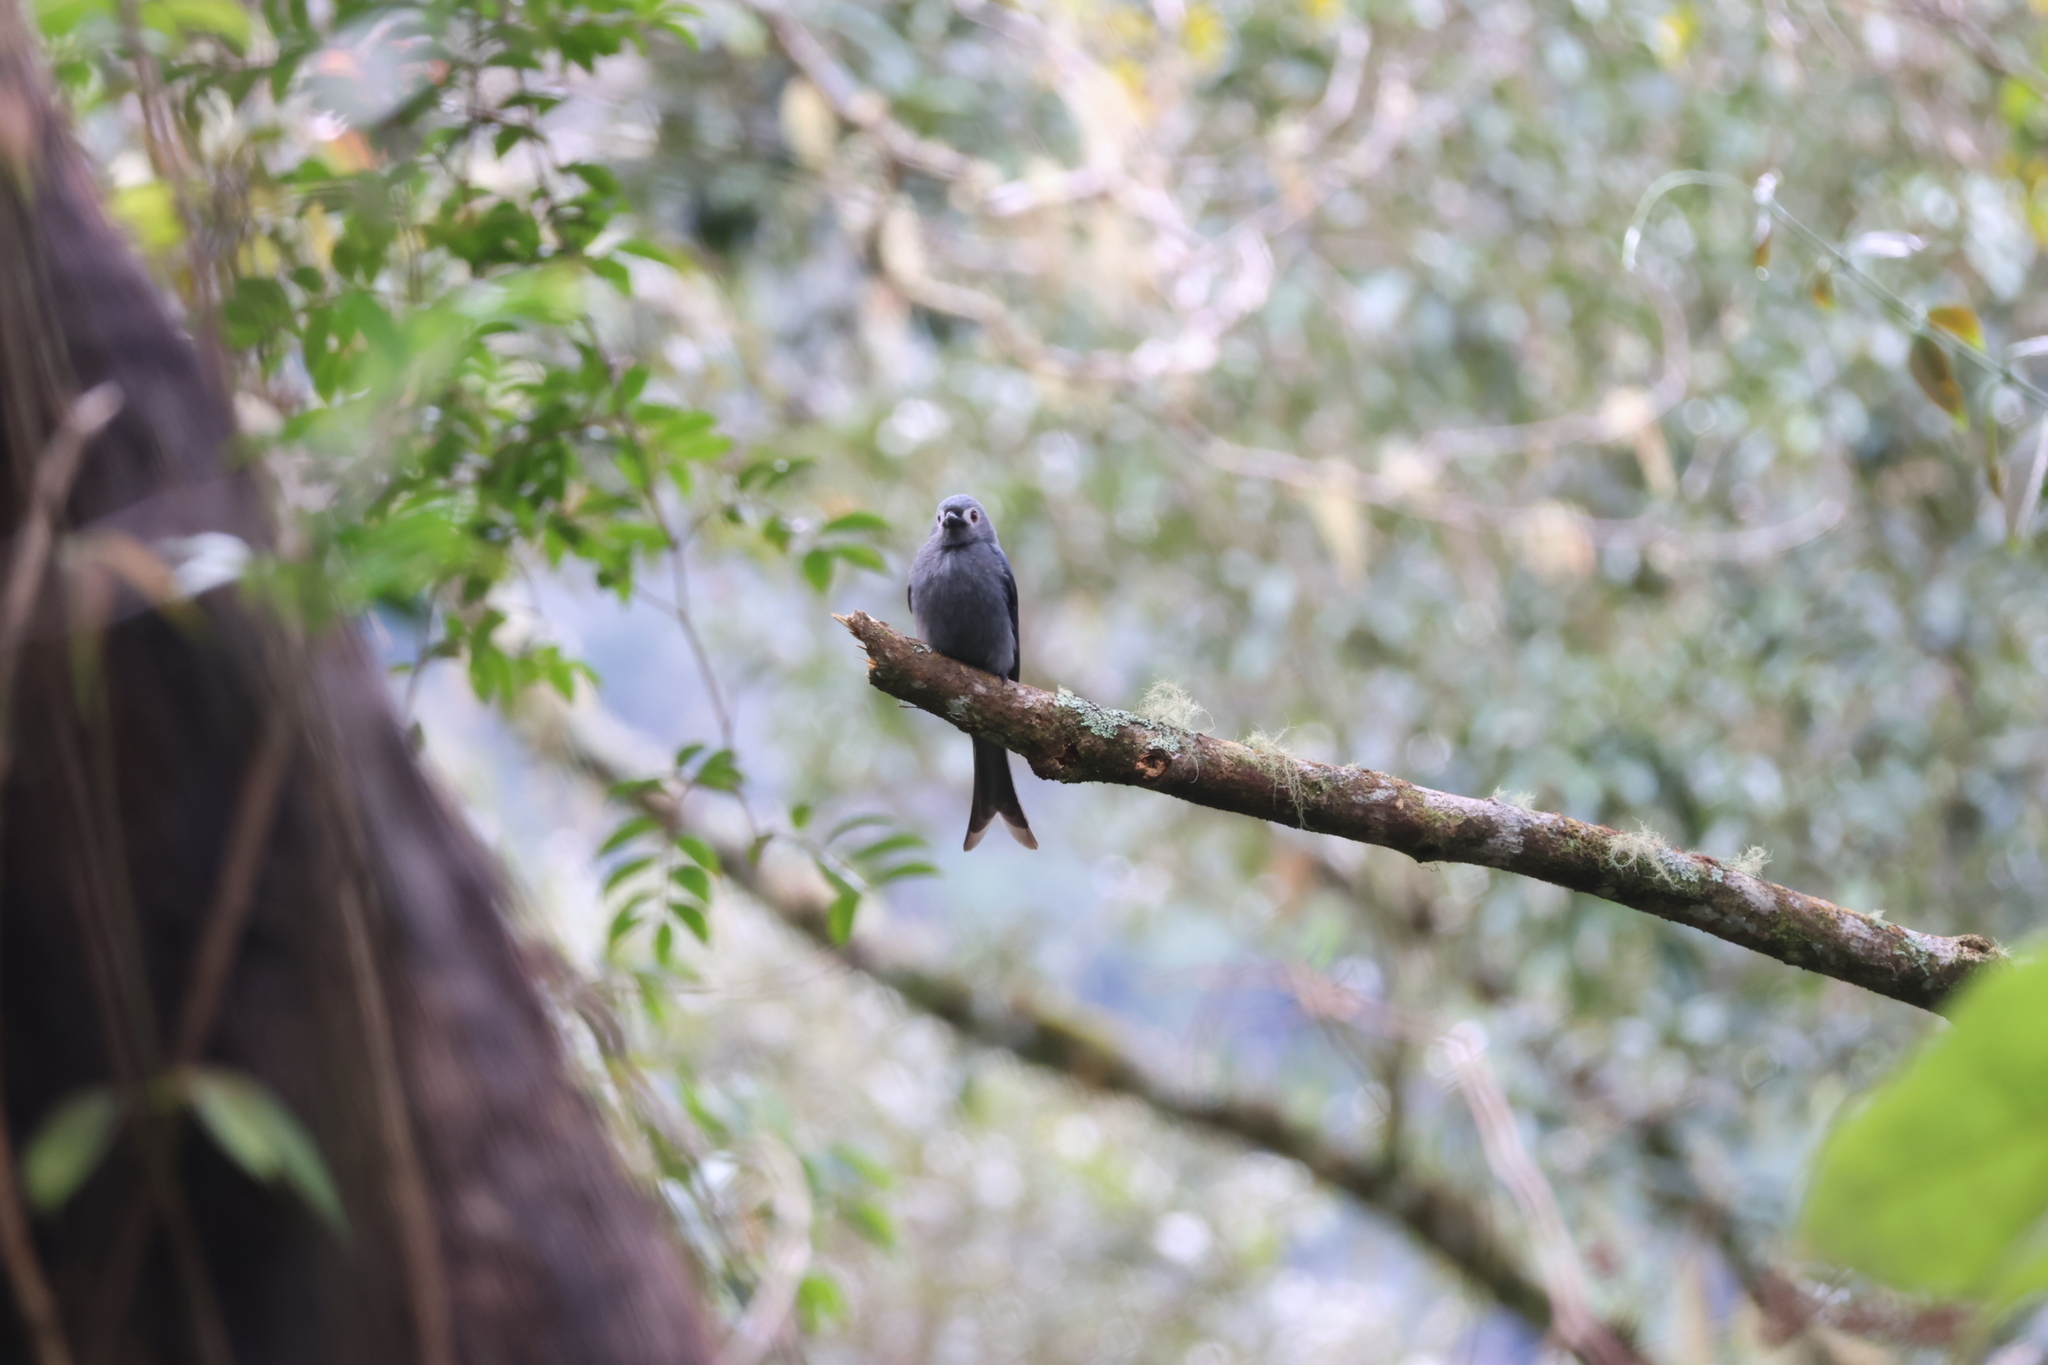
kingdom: Animalia
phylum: Chordata
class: Aves
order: Passeriformes
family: Dicruridae
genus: Dicrurus
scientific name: Dicrurus leucophaeus
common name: Ashy drongo
